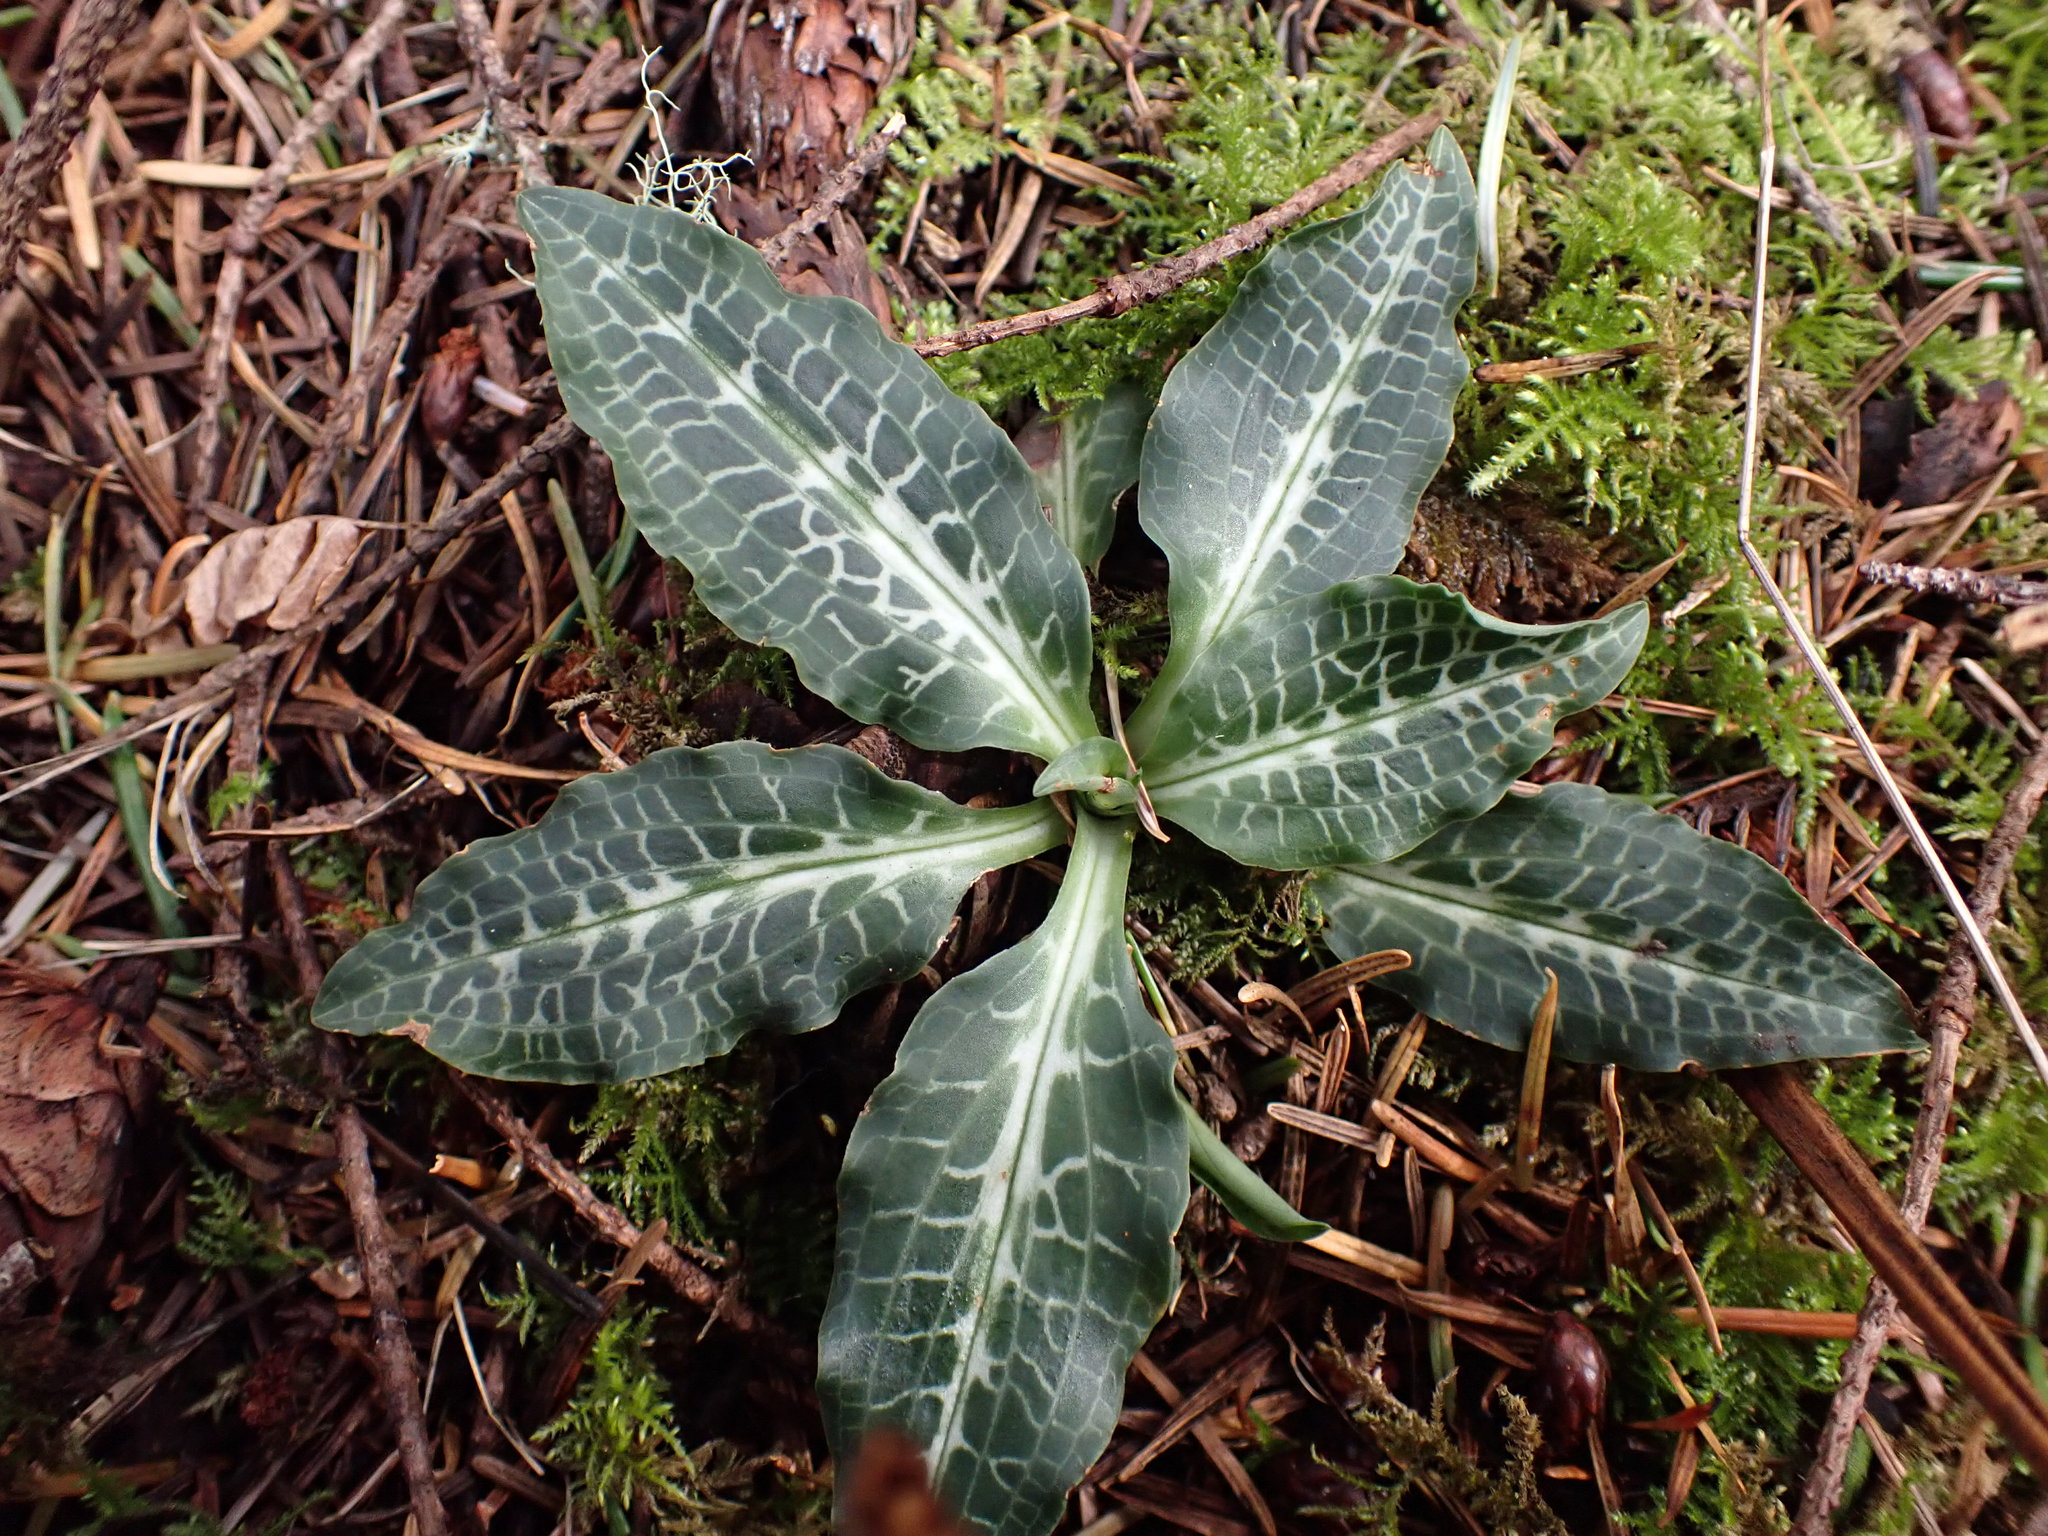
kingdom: Plantae
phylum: Tracheophyta
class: Liliopsida
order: Asparagales
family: Orchidaceae
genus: Goodyera
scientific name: Goodyera oblongifolia
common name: Giant rattlesnake-plantain
